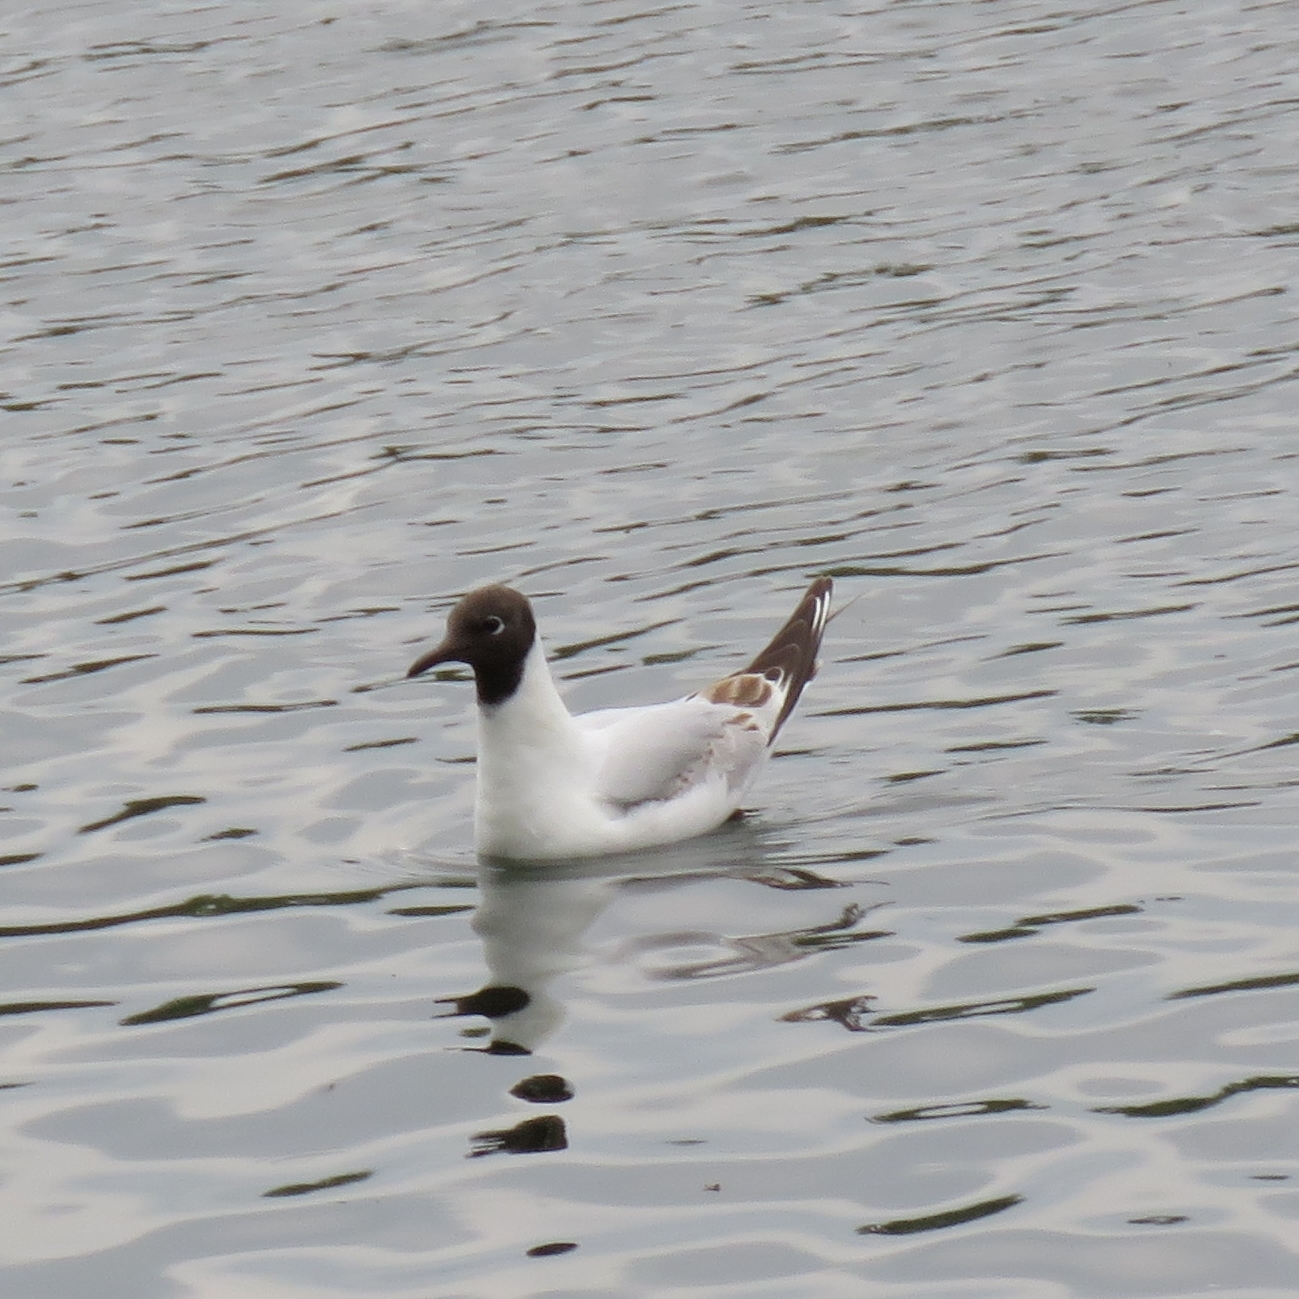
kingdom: Animalia
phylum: Chordata
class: Aves
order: Charadriiformes
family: Laridae
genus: Chroicocephalus
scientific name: Chroicocephalus ridibundus
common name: Black-headed gull
